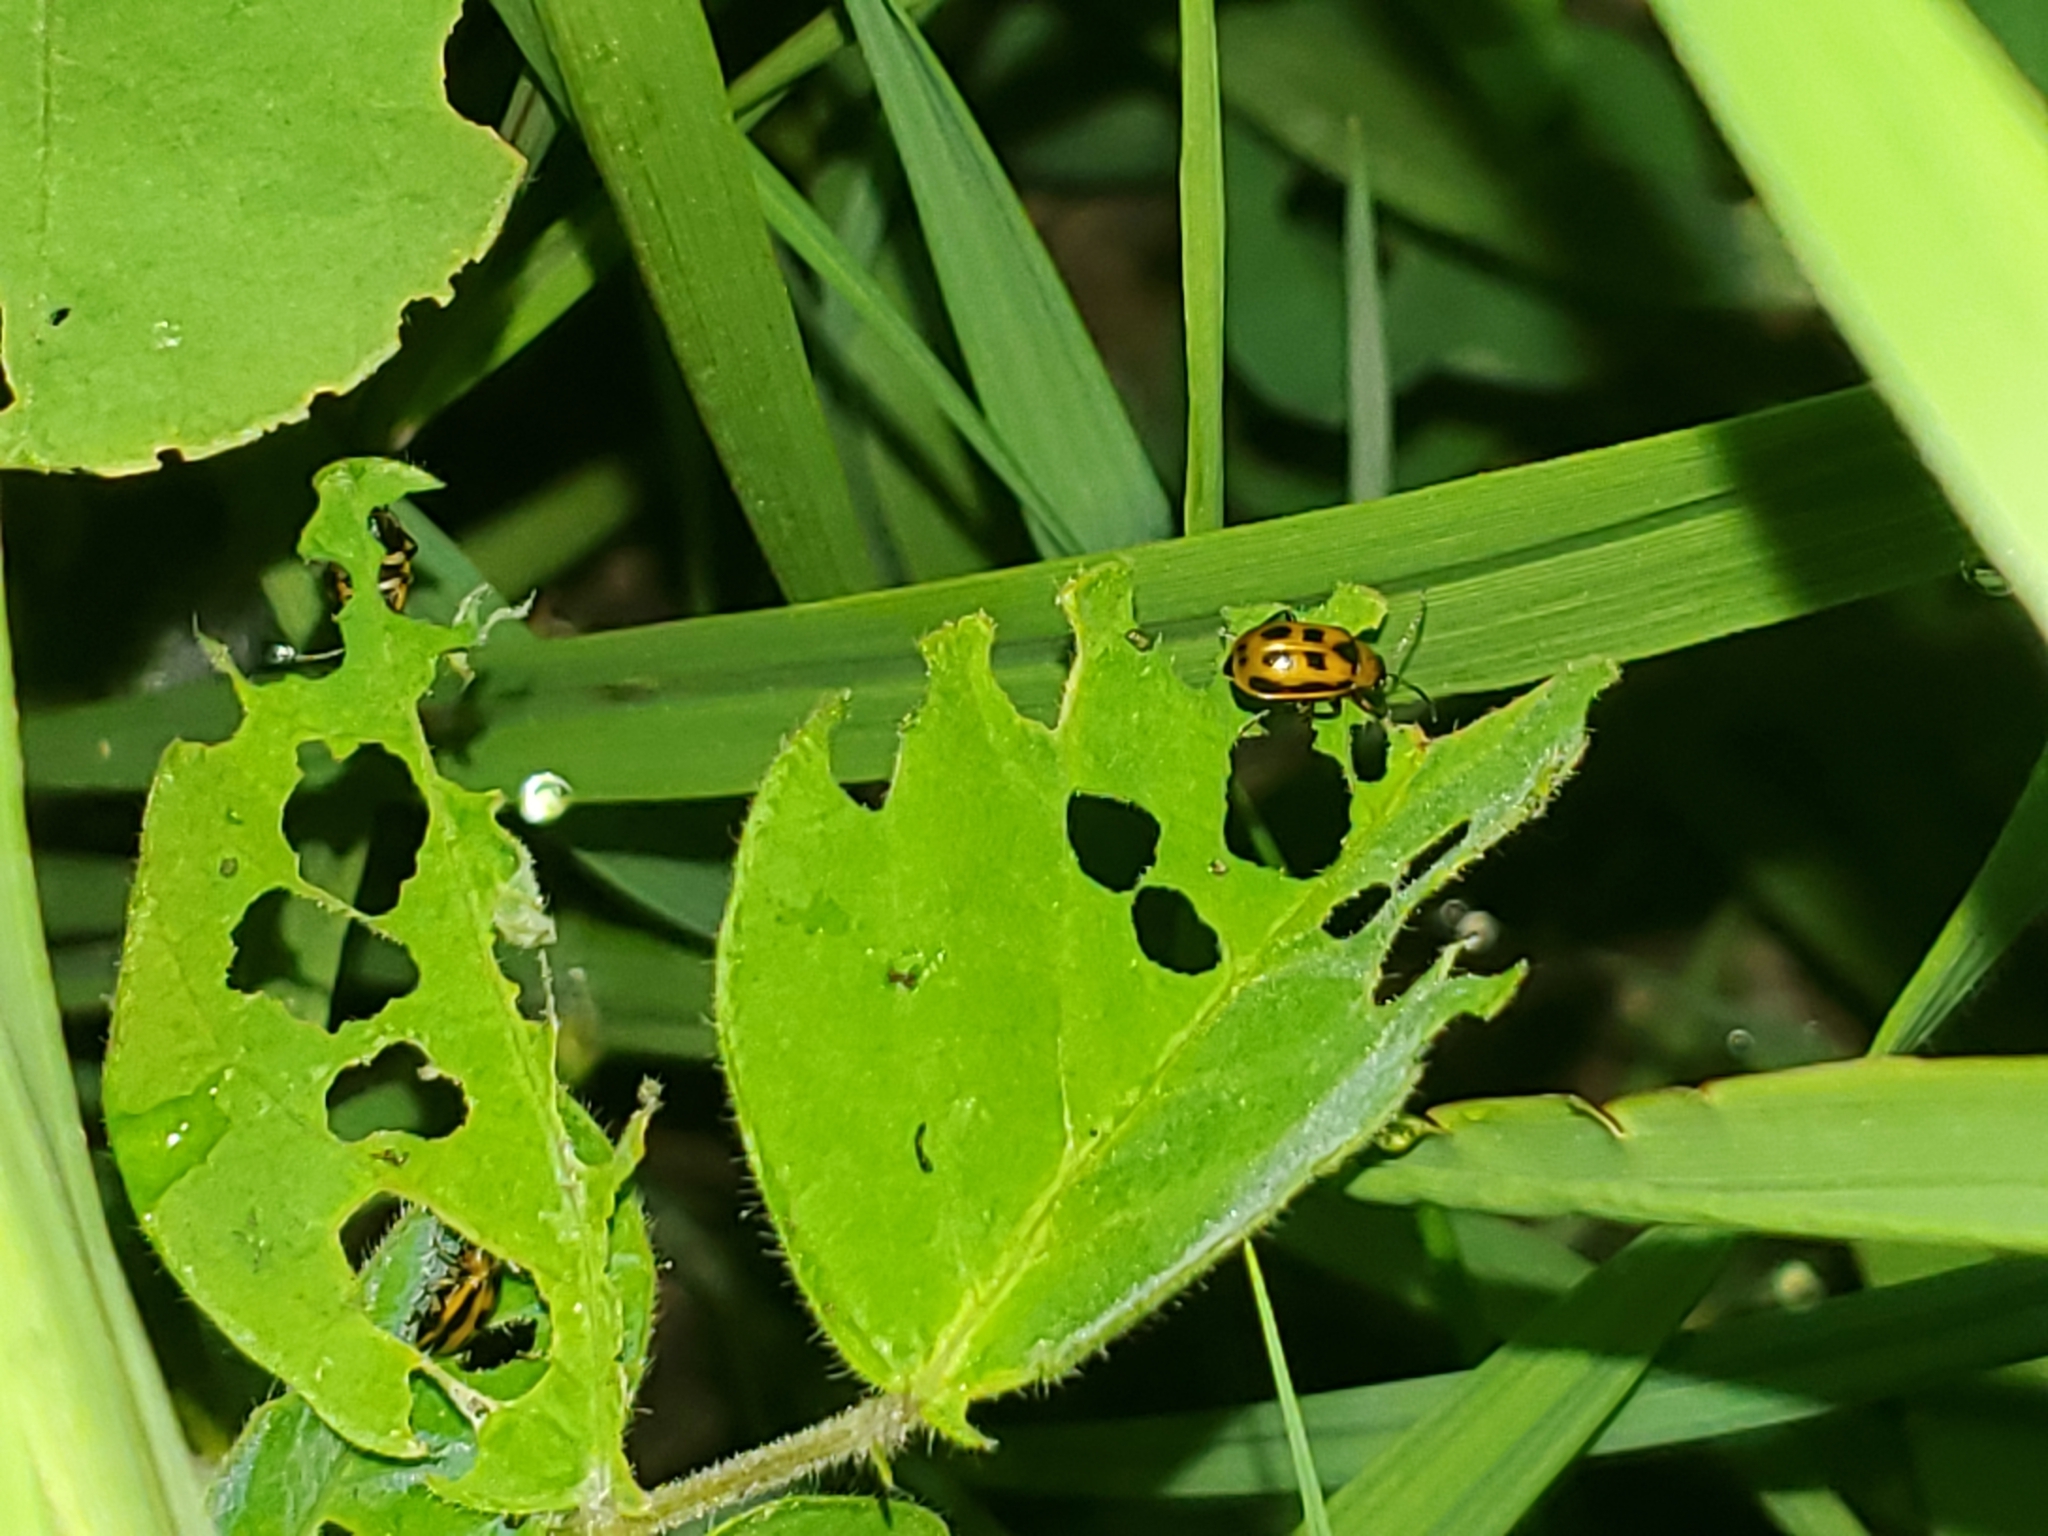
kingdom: Animalia
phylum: Arthropoda
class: Insecta
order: Coleoptera
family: Chrysomelidae
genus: Cerotoma
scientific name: Cerotoma trifurcata
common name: Bean leaf beetle
